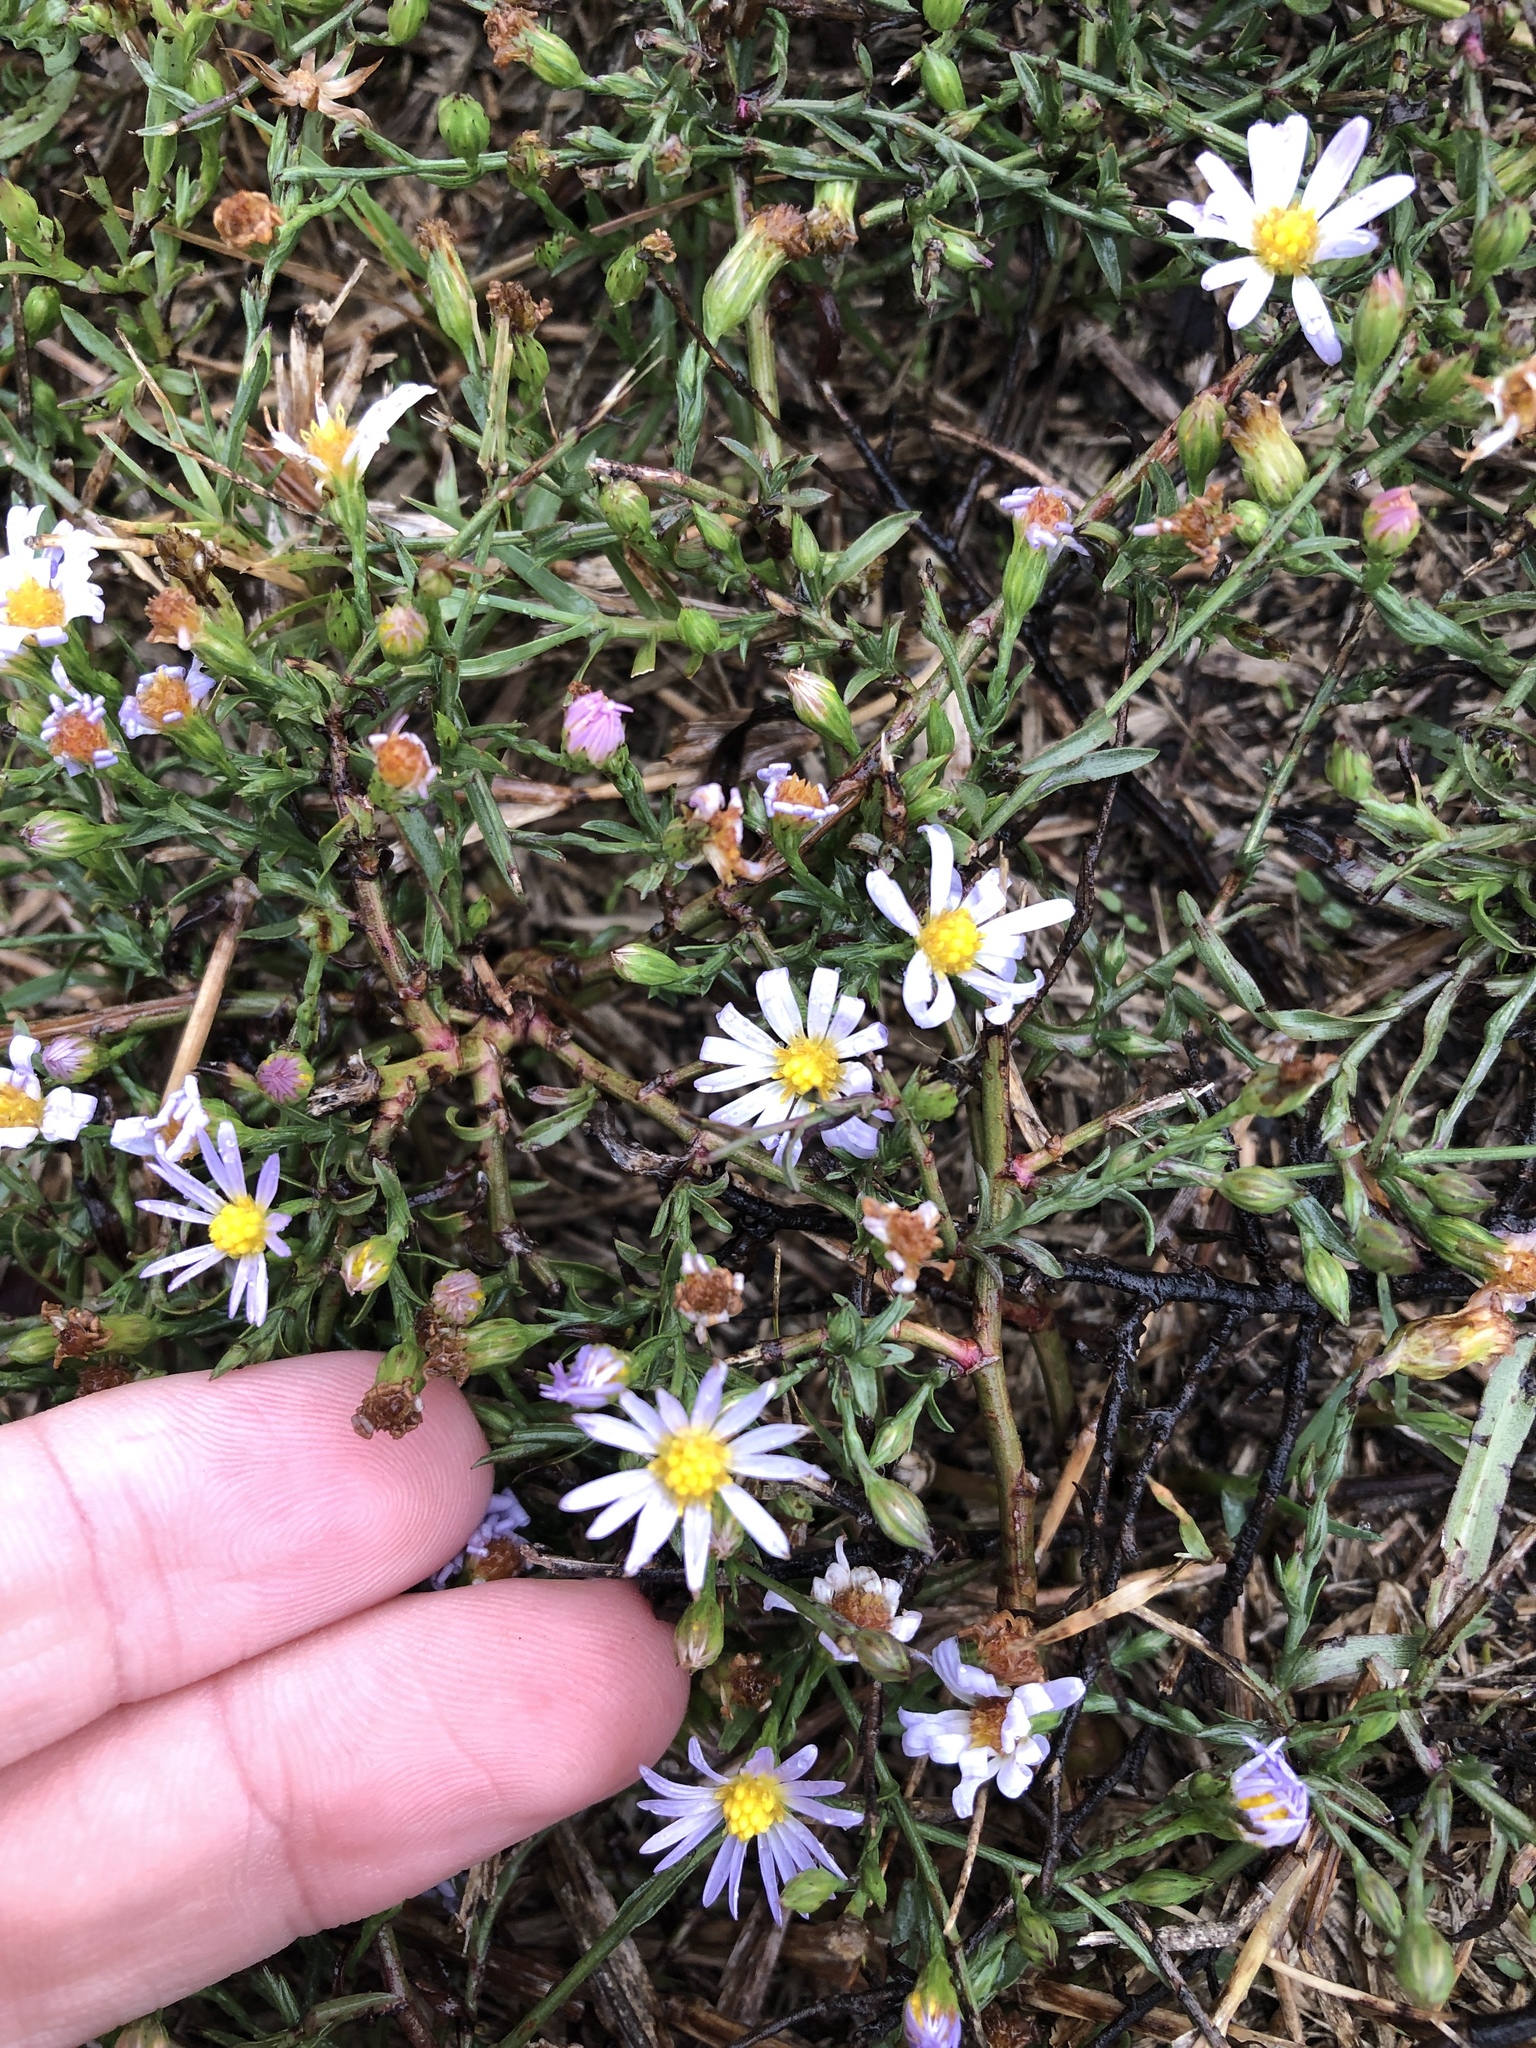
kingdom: Plantae
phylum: Tracheophyta
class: Magnoliopsida
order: Asterales
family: Asteraceae
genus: Symphyotrichum
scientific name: Symphyotrichum divaricatum
